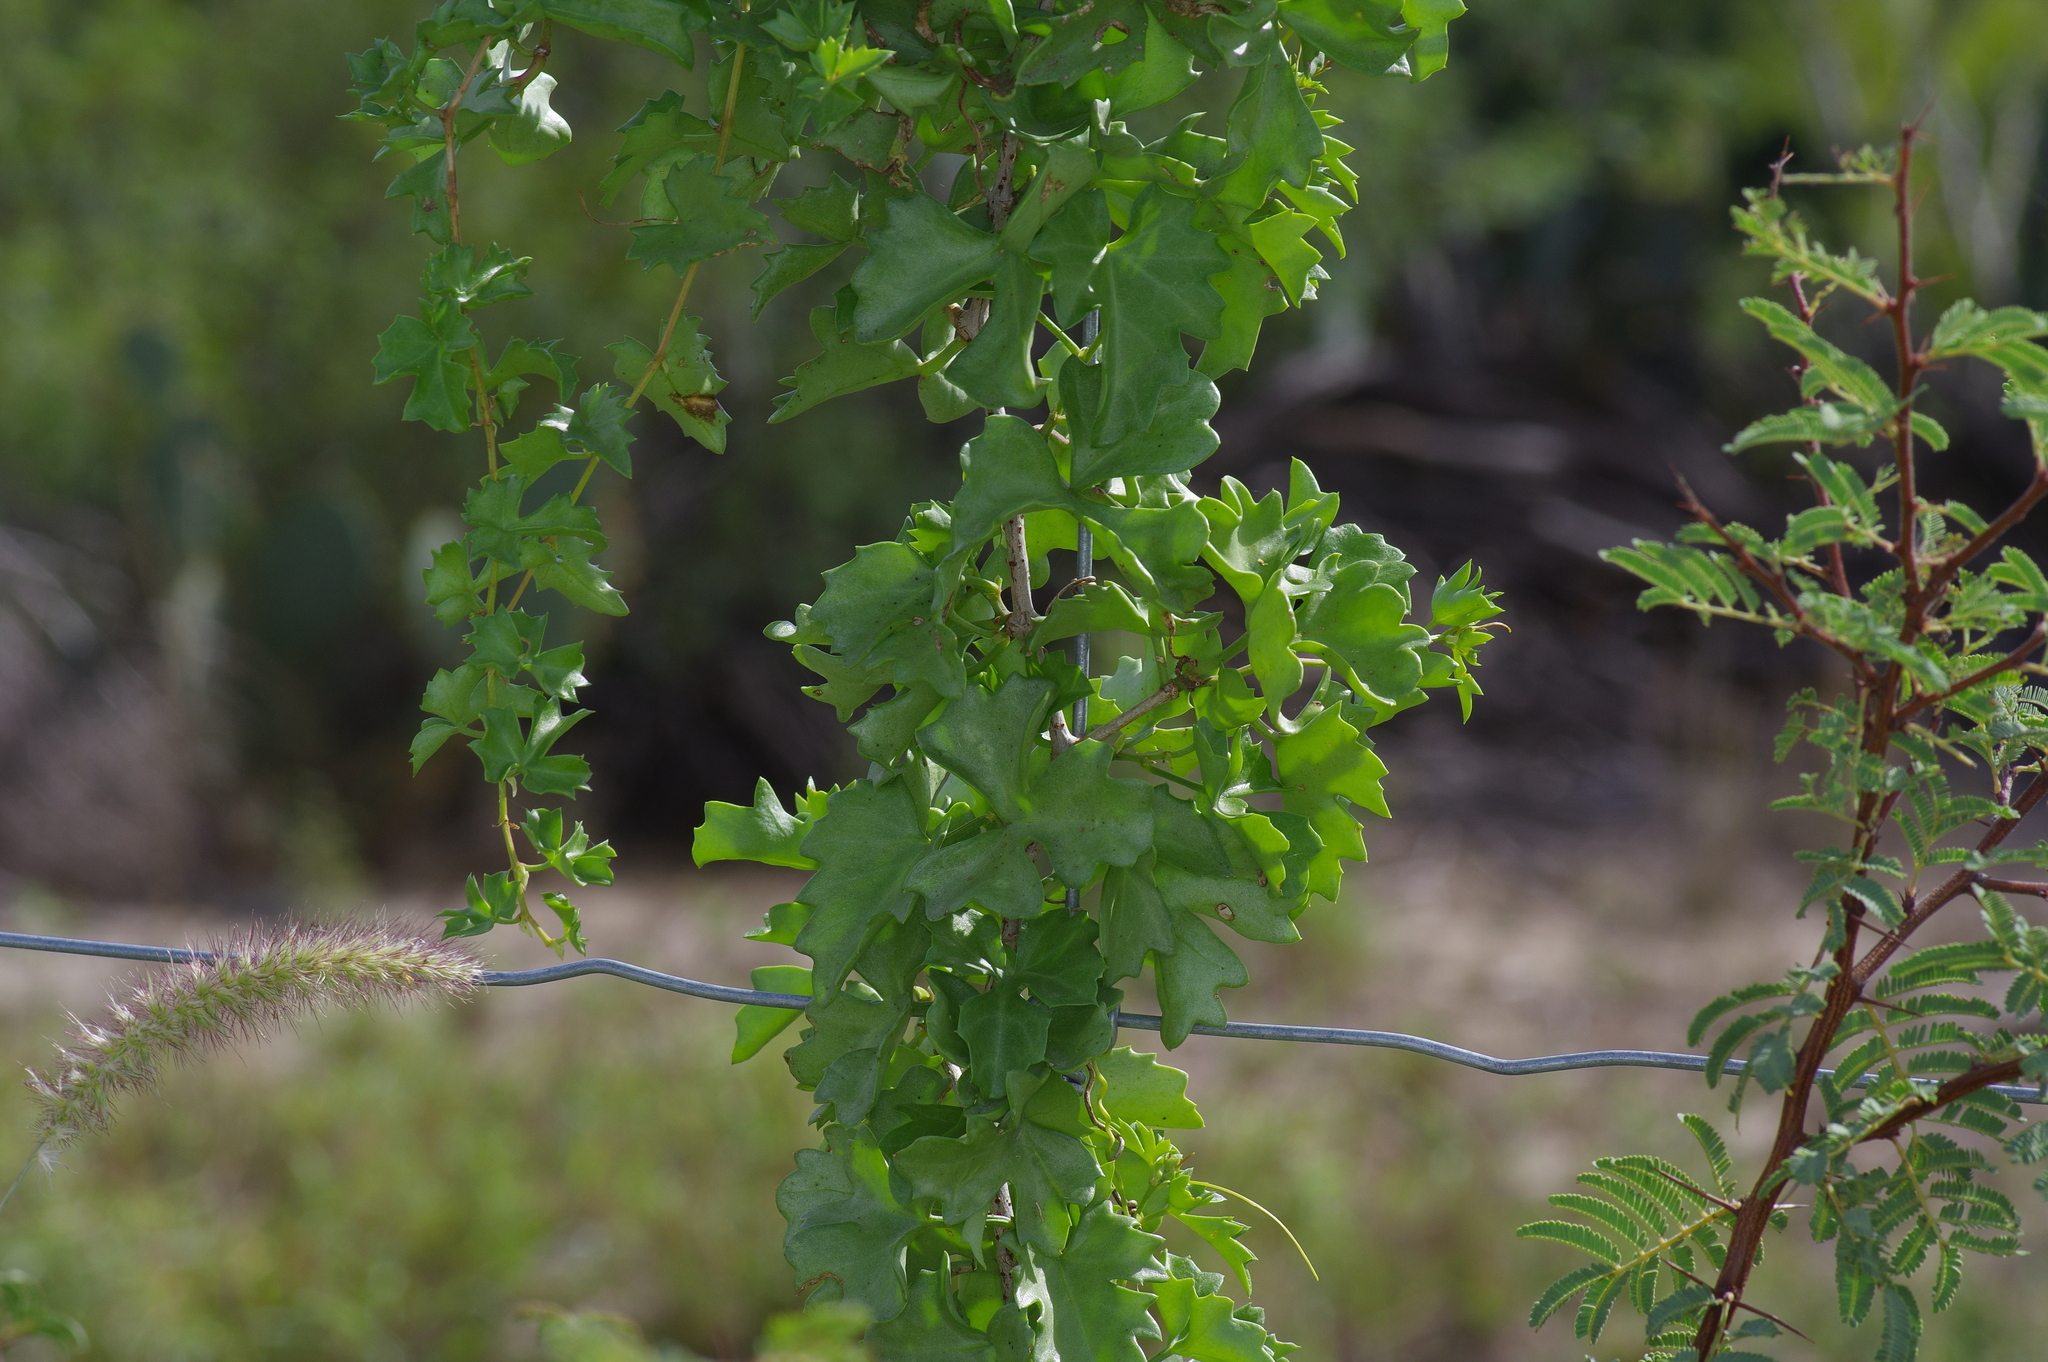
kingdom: Plantae
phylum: Tracheophyta
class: Magnoliopsida
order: Vitales
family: Vitaceae
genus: Cissus
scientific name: Cissus trifoliata
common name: Vine-sorrel
